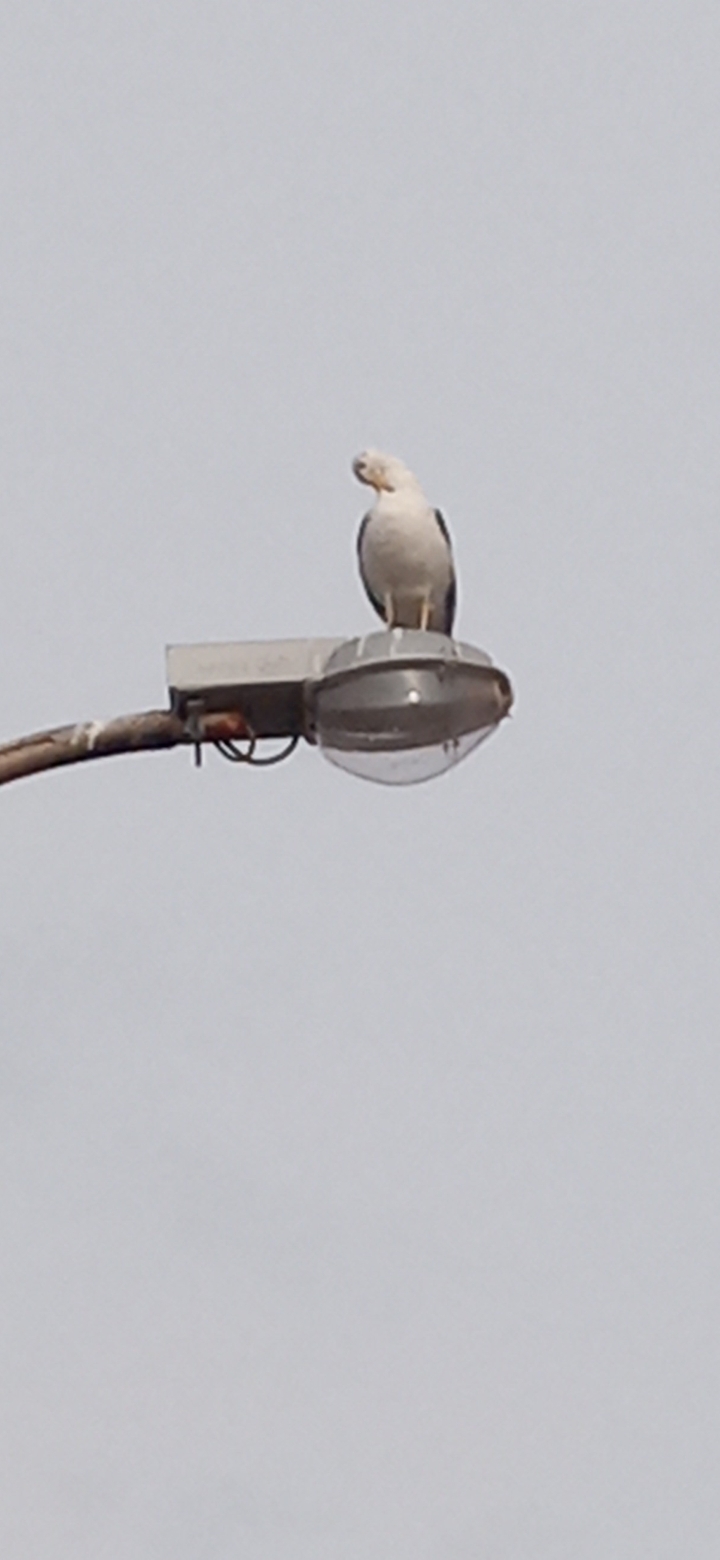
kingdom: Animalia
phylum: Chordata
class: Aves
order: Charadriiformes
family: Laridae
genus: Larus
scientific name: Larus dominicanus
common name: Kelp gull
